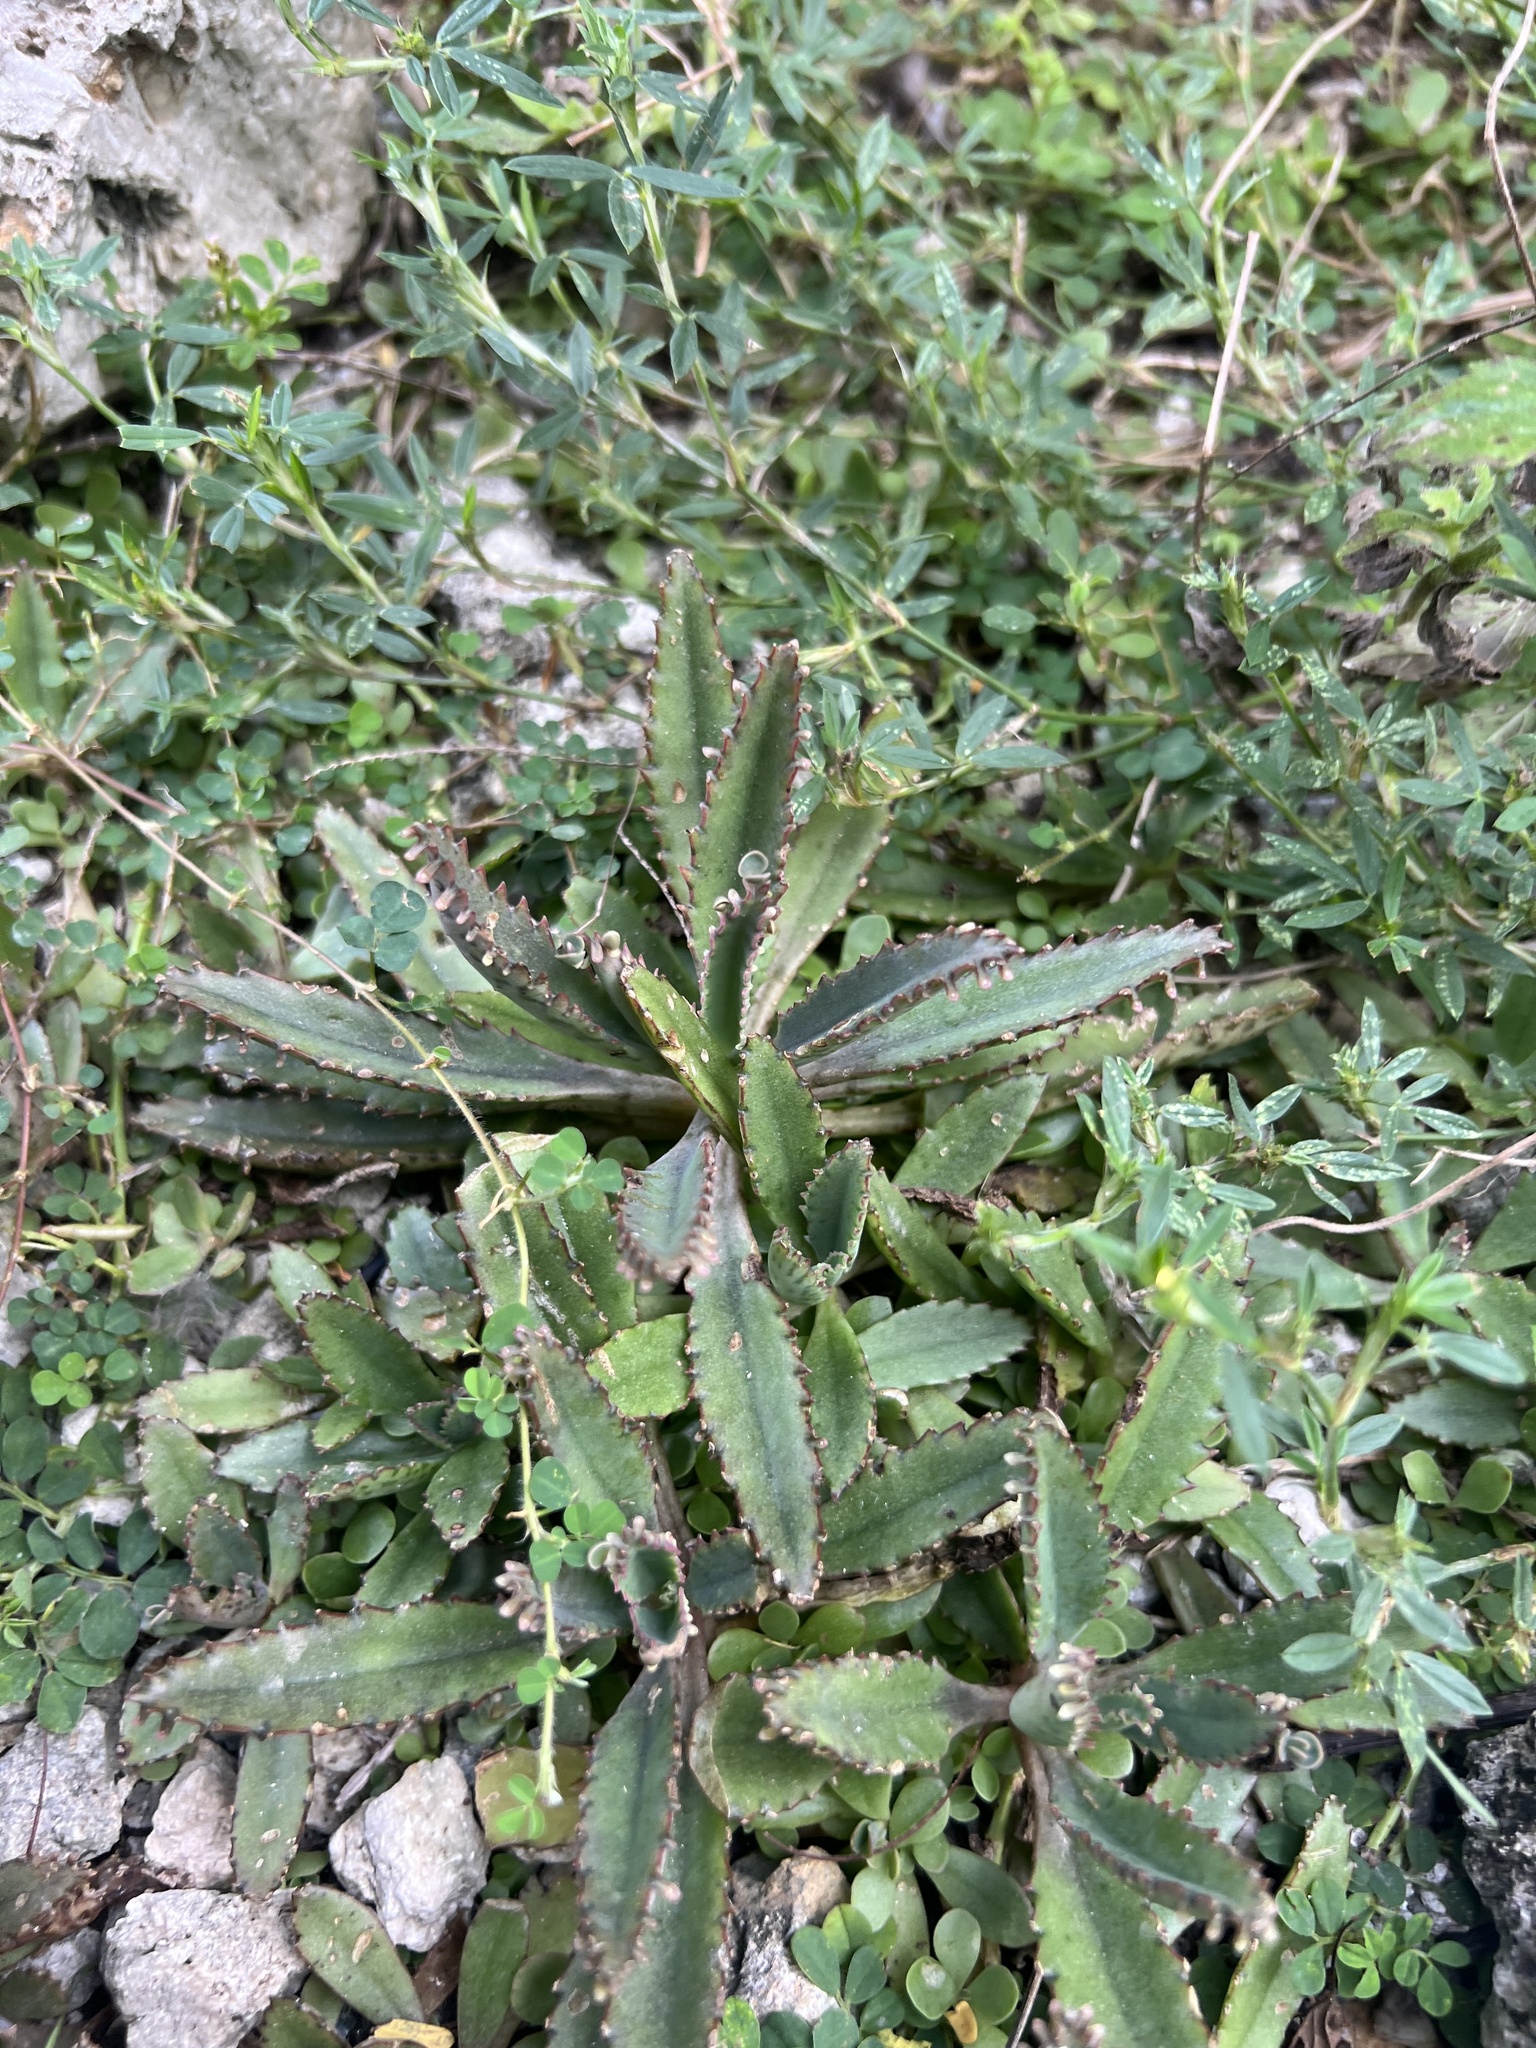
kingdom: Plantae
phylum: Tracheophyta
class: Magnoliopsida
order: Saxifragales
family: Crassulaceae
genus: Kalanchoe
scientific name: Kalanchoe houghtonii
